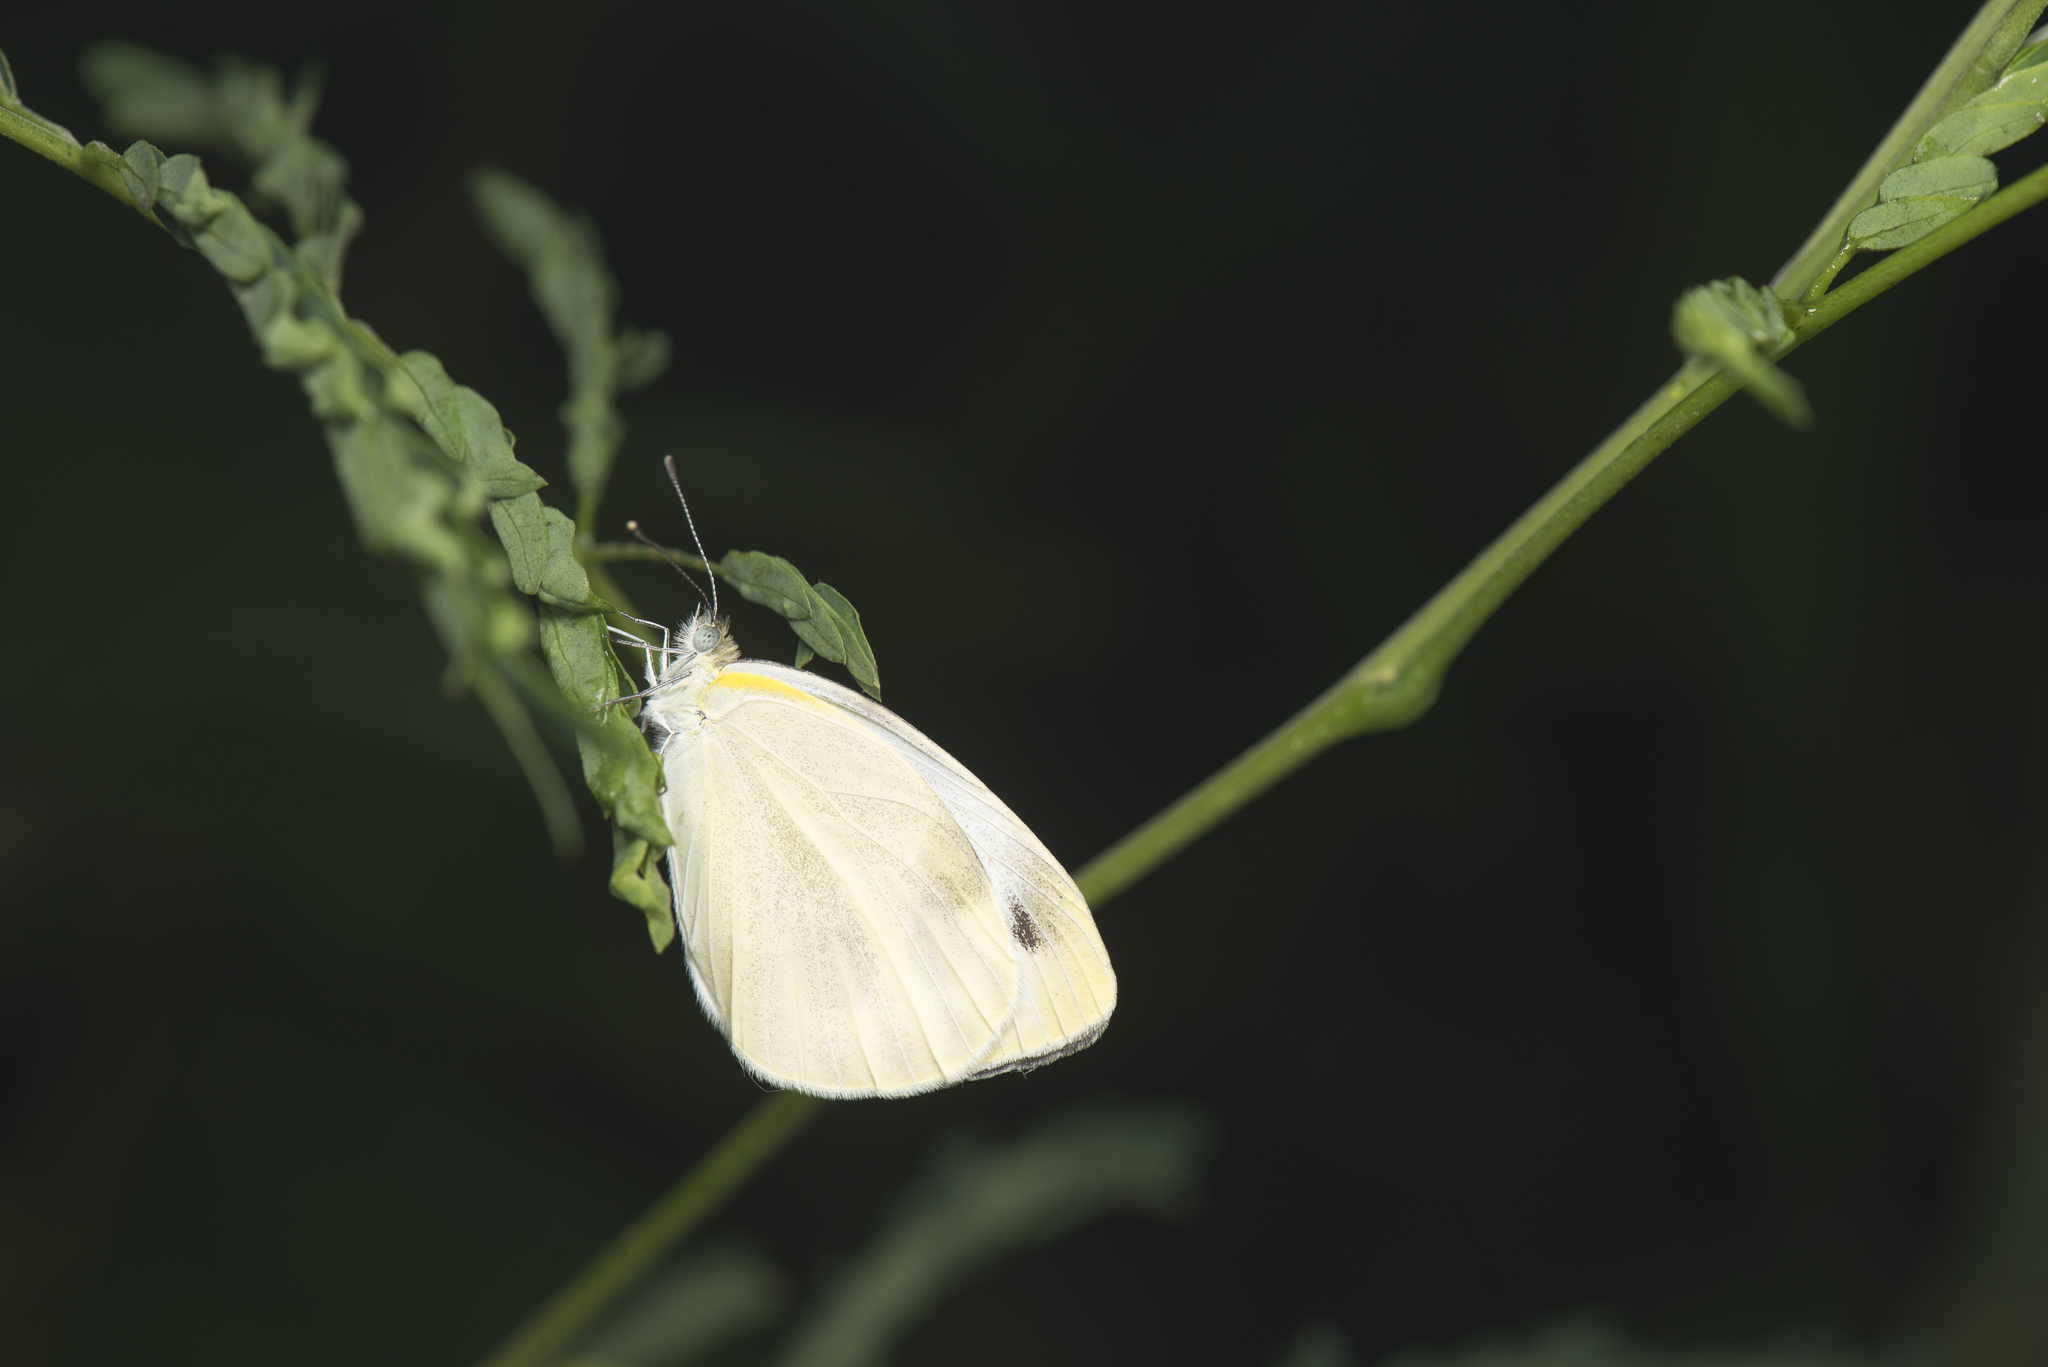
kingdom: Animalia
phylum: Arthropoda
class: Insecta
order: Lepidoptera
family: Pieridae
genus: Pieris
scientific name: Pieris rapae
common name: Small white
